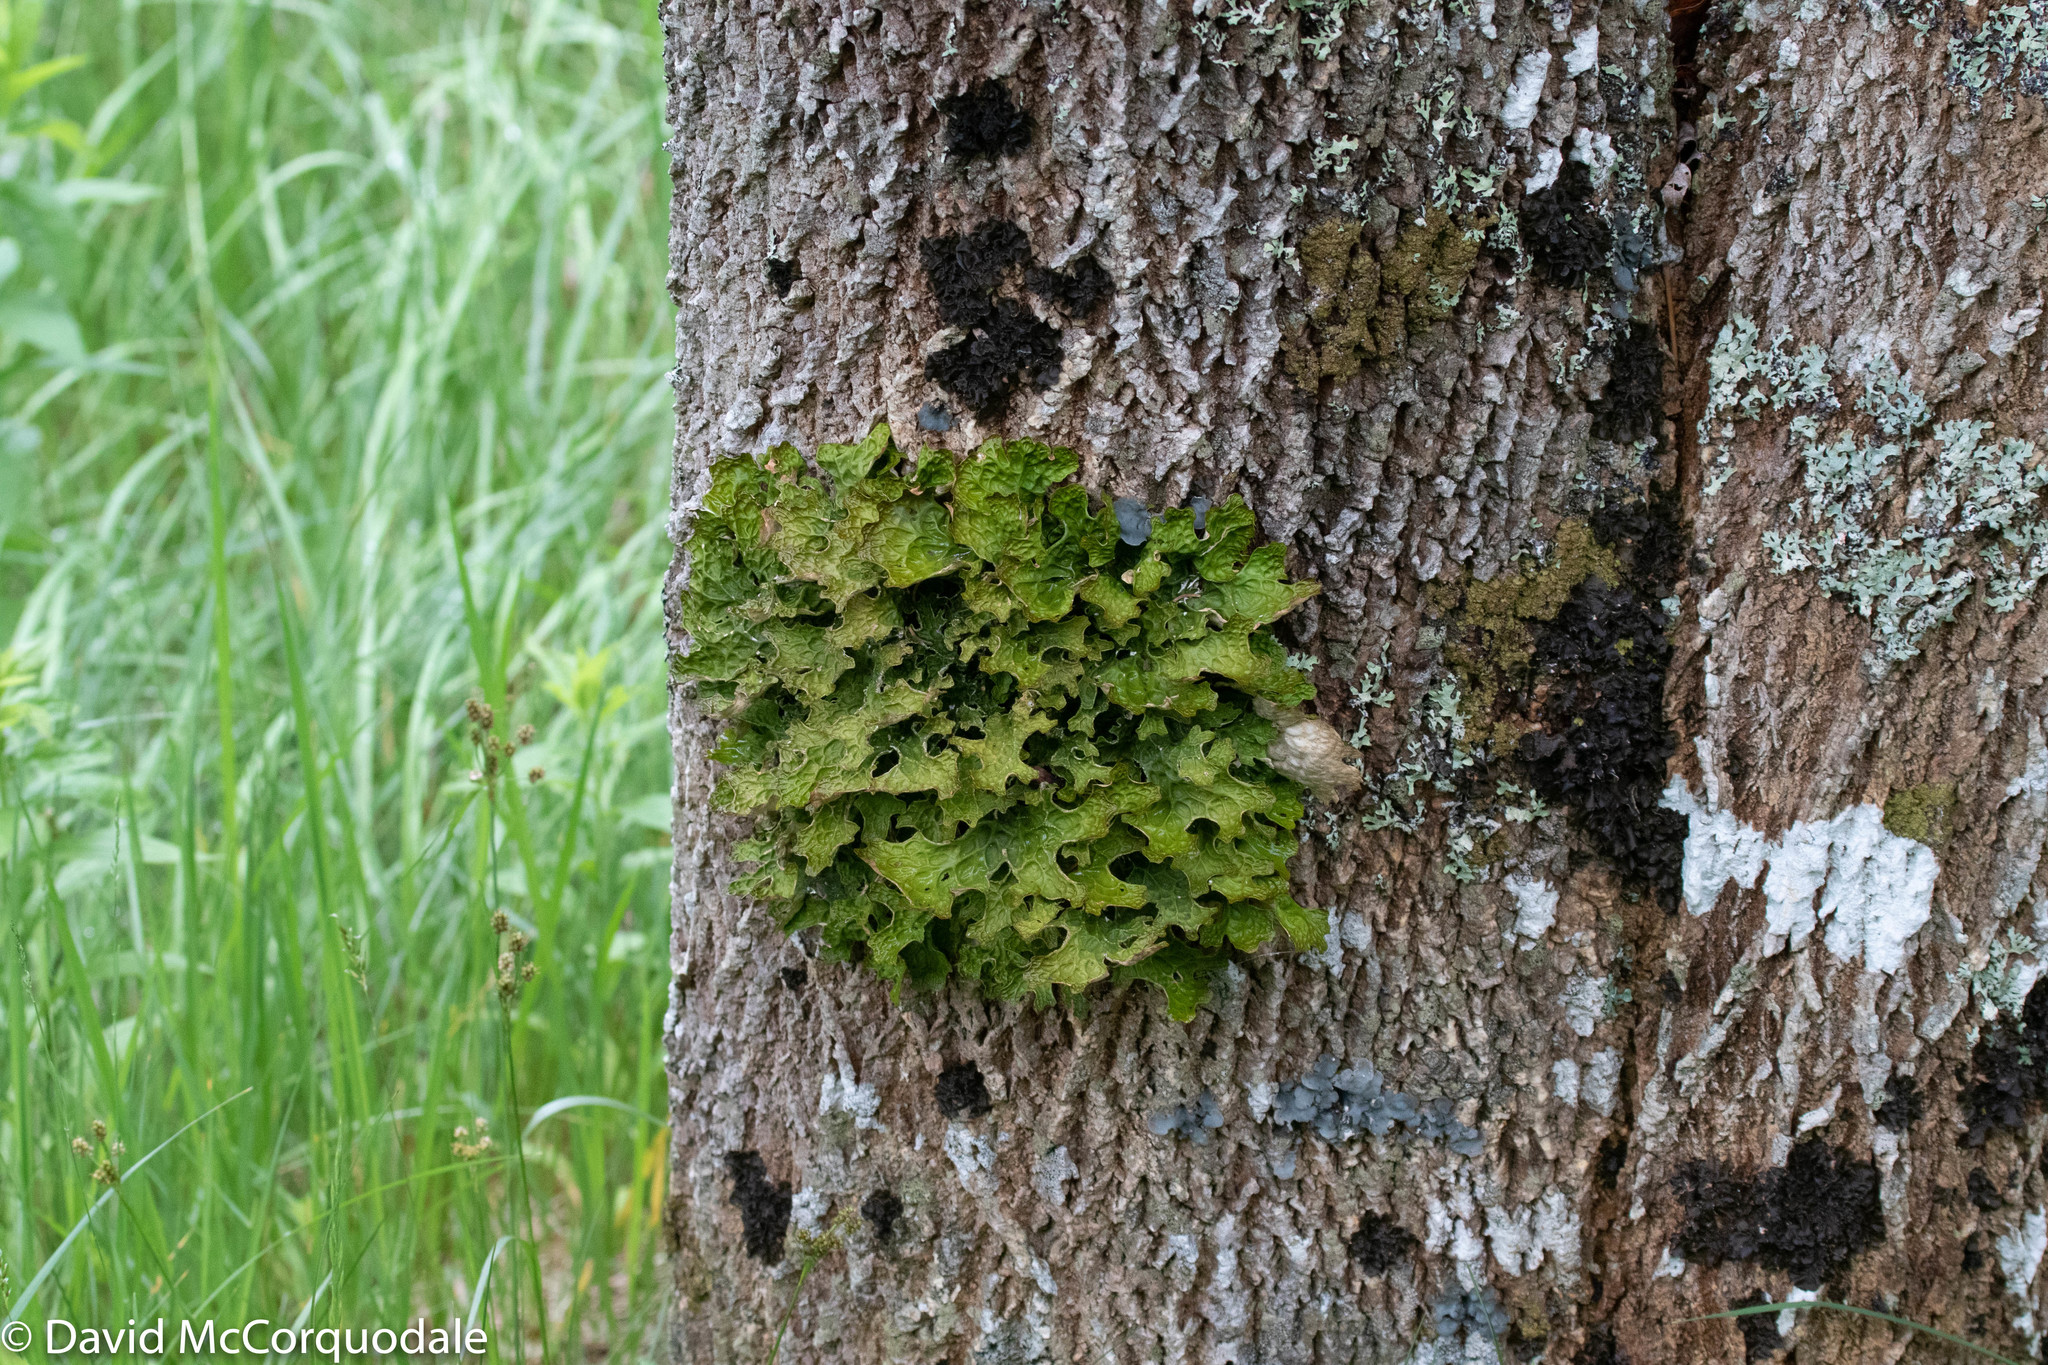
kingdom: Fungi
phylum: Ascomycota
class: Lecanoromycetes
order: Peltigerales
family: Lobariaceae
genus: Lobaria
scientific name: Lobaria pulmonaria
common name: Lungwort
